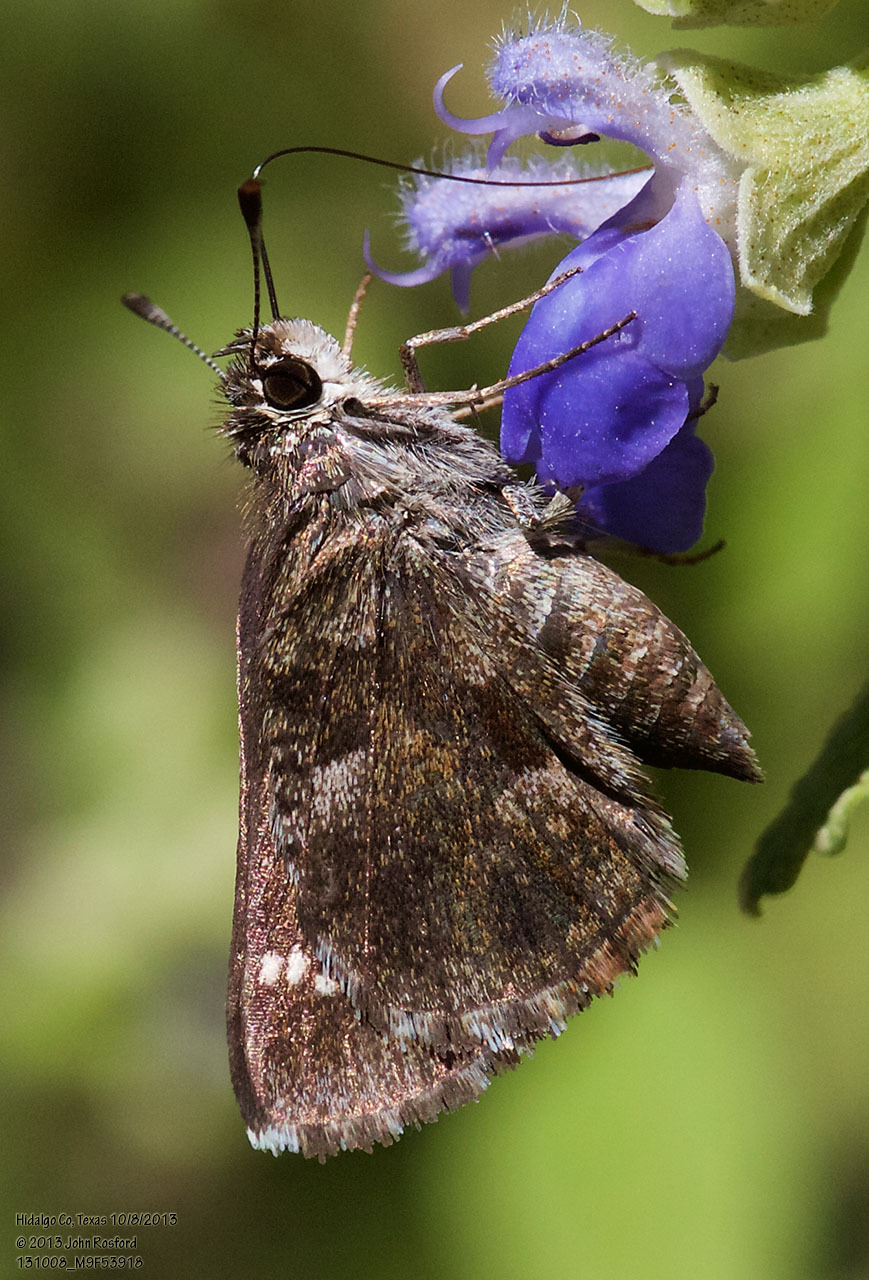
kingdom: Animalia
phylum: Arthropoda
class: Insecta
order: Lepidoptera
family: Hesperiidae
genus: Mastor
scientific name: Mastor nysa
